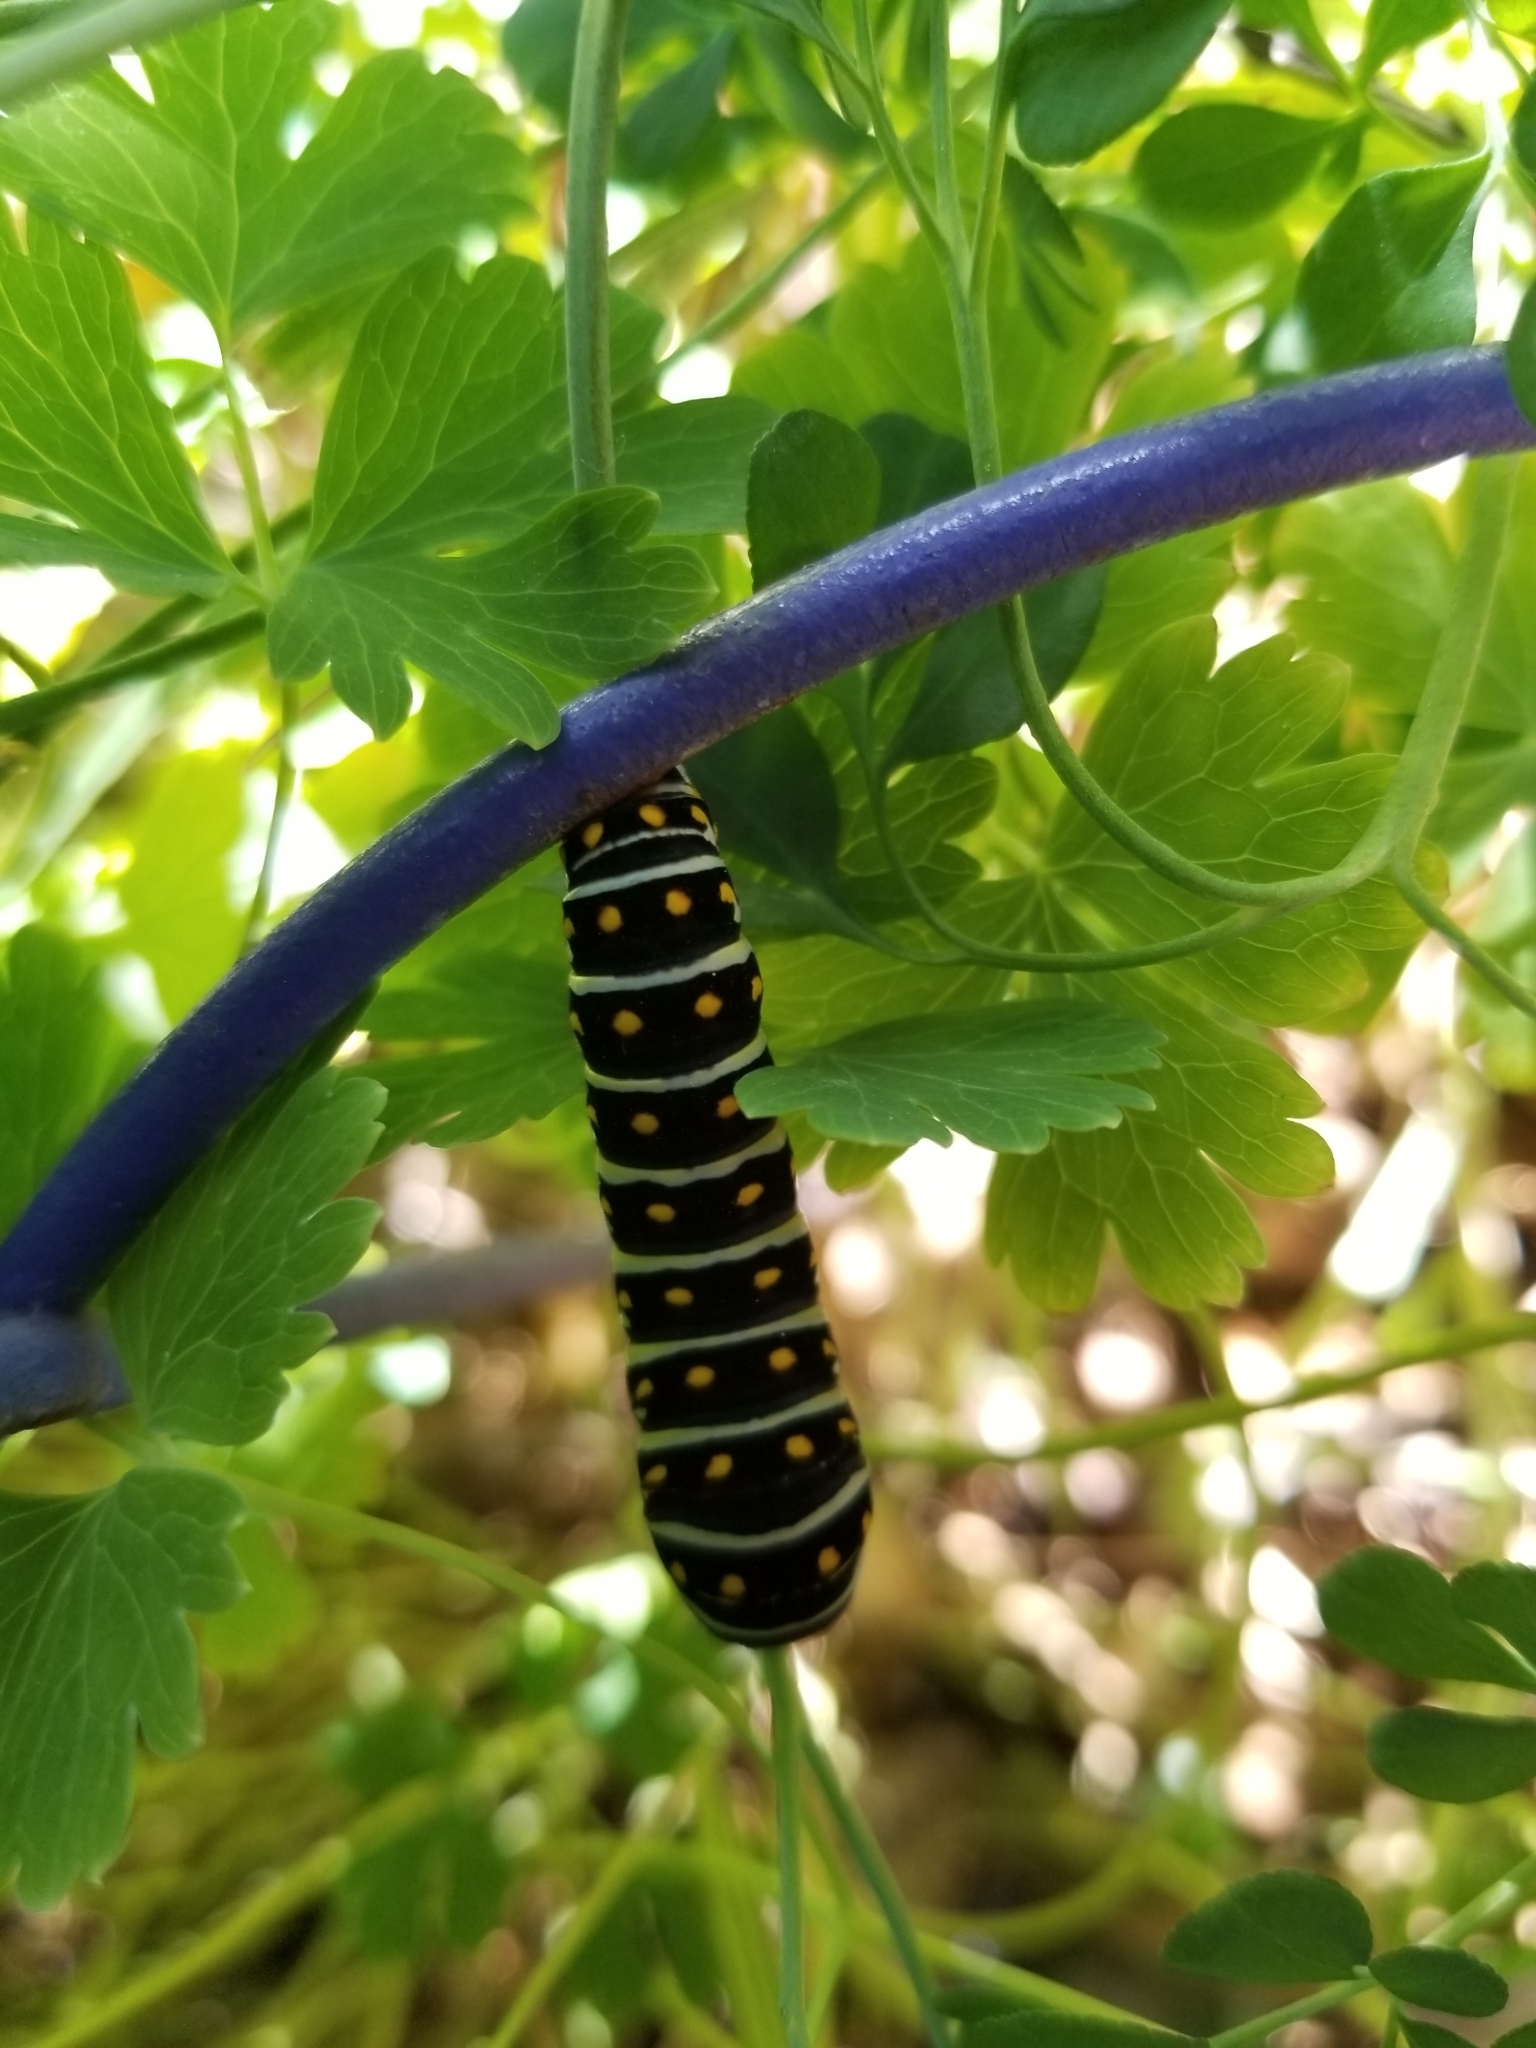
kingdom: Animalia
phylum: Arthropoda
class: Insecta
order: Lepidoptera
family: Papilionidae
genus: Papilio
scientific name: Papilio polyxenes
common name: Black swallowtail
